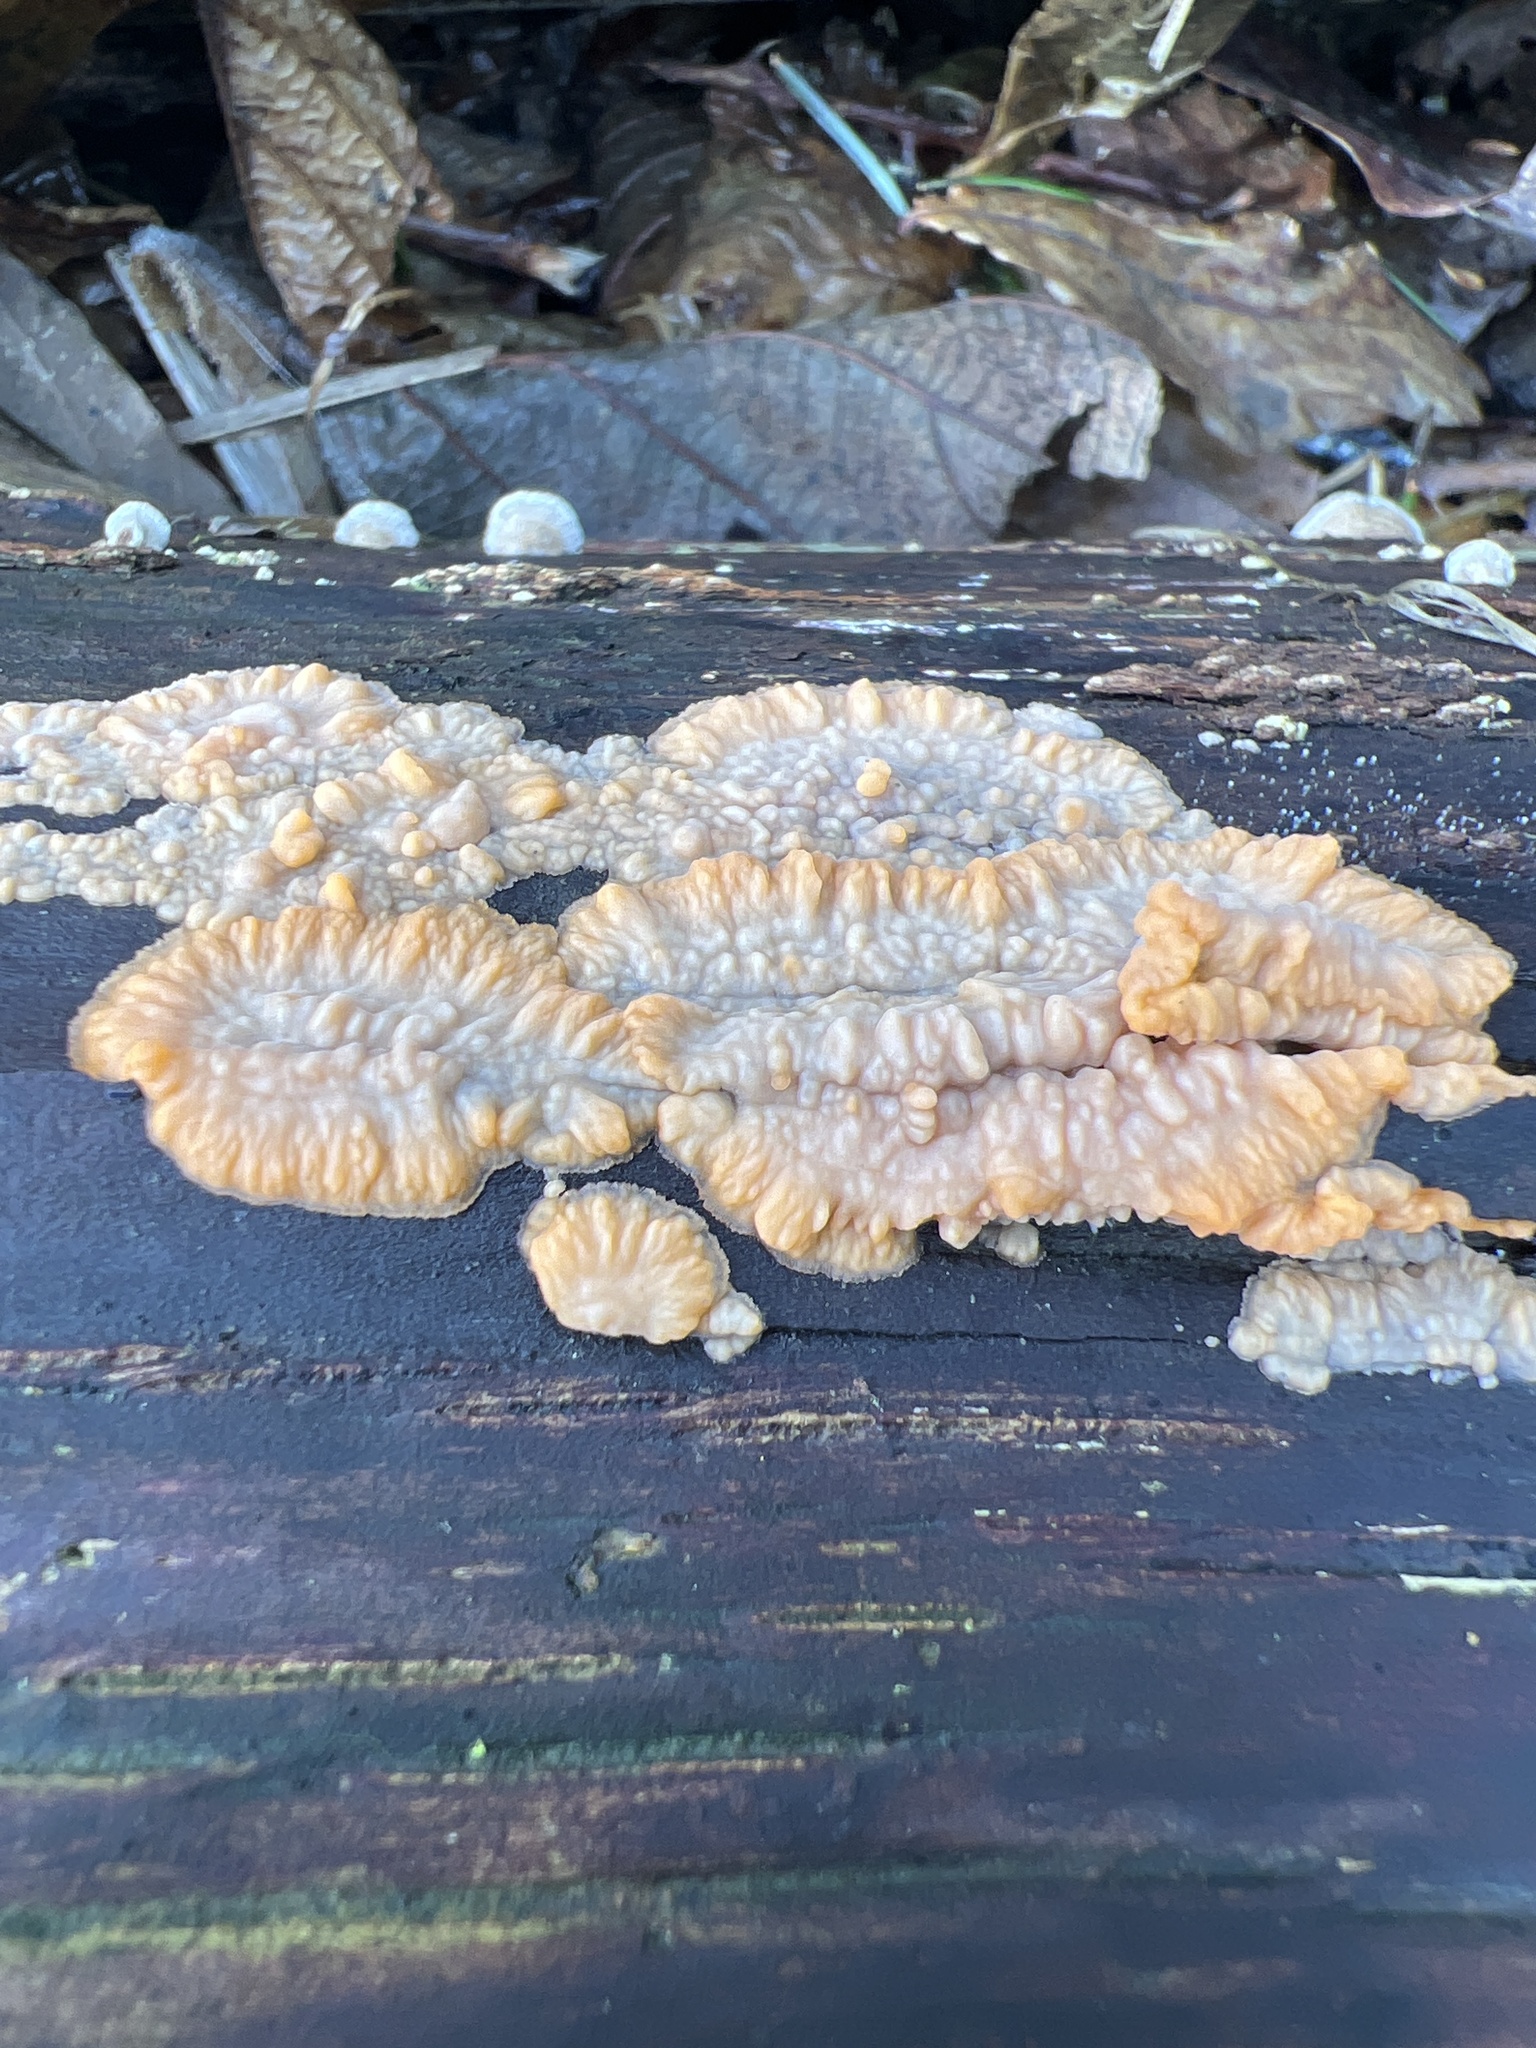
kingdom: Fungi
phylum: Basidiomycota
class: Agaricomycetes
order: Polyporales
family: Meruliaceae
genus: Phlebia
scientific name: Phlebia radiata
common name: Wrinkled crust
